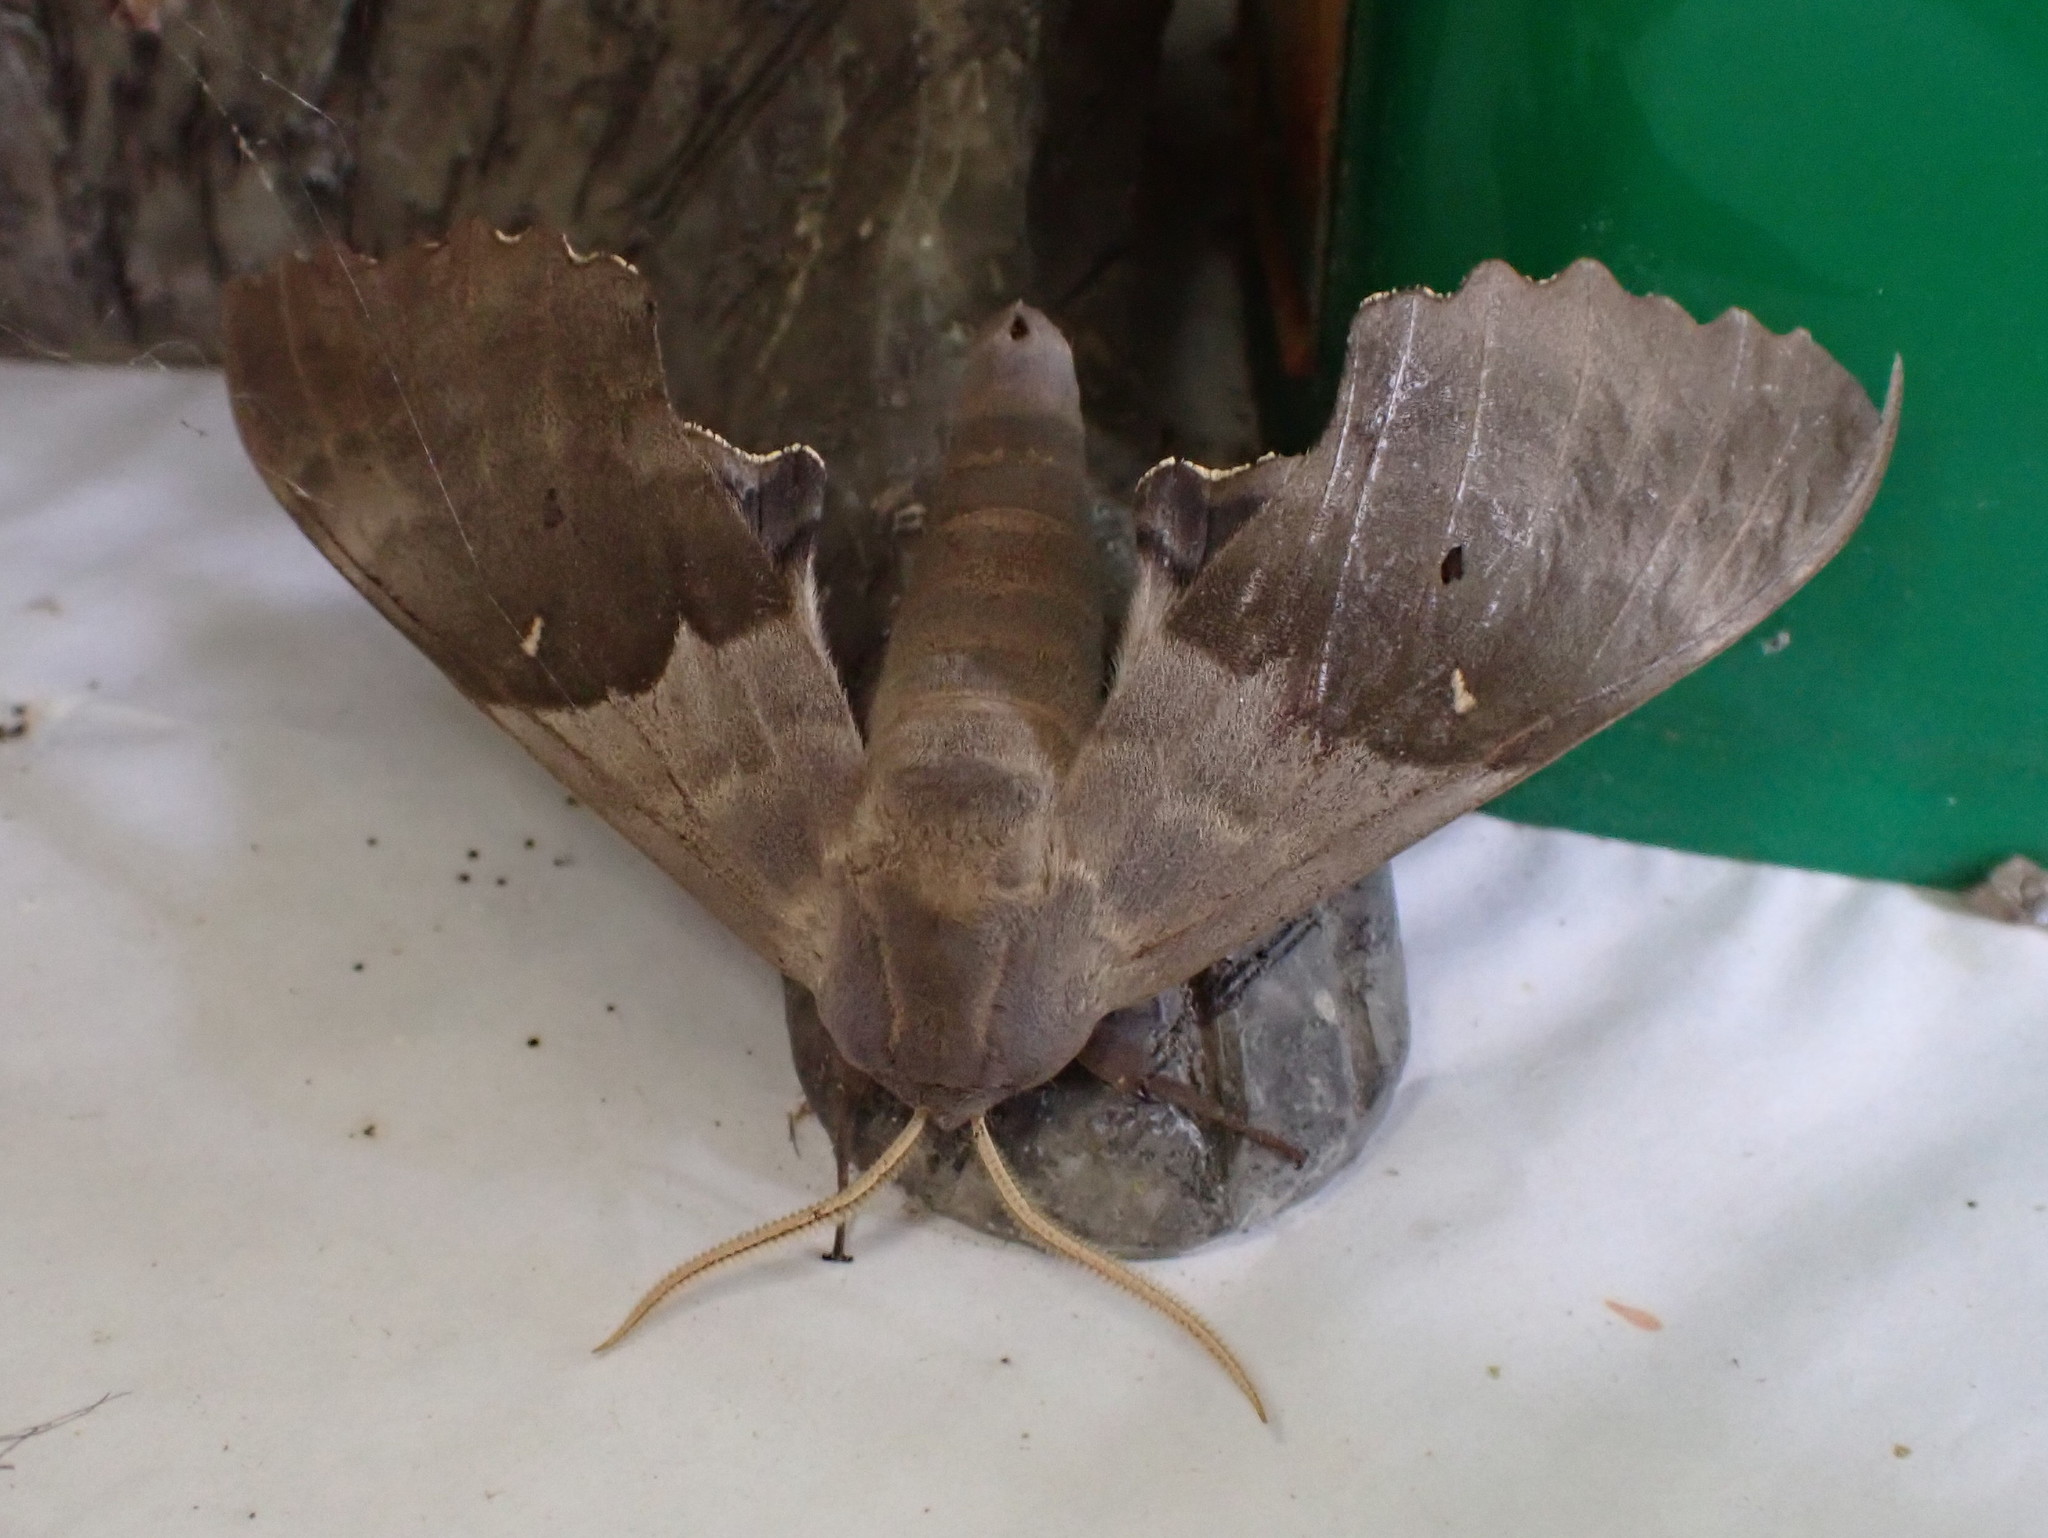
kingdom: Animalia
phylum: Arthropoda
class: Insecta
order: Lepidoptera
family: Sphingidae
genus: Pachysphinx
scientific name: Pachysphinx modesta
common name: Big poplar sphinx
